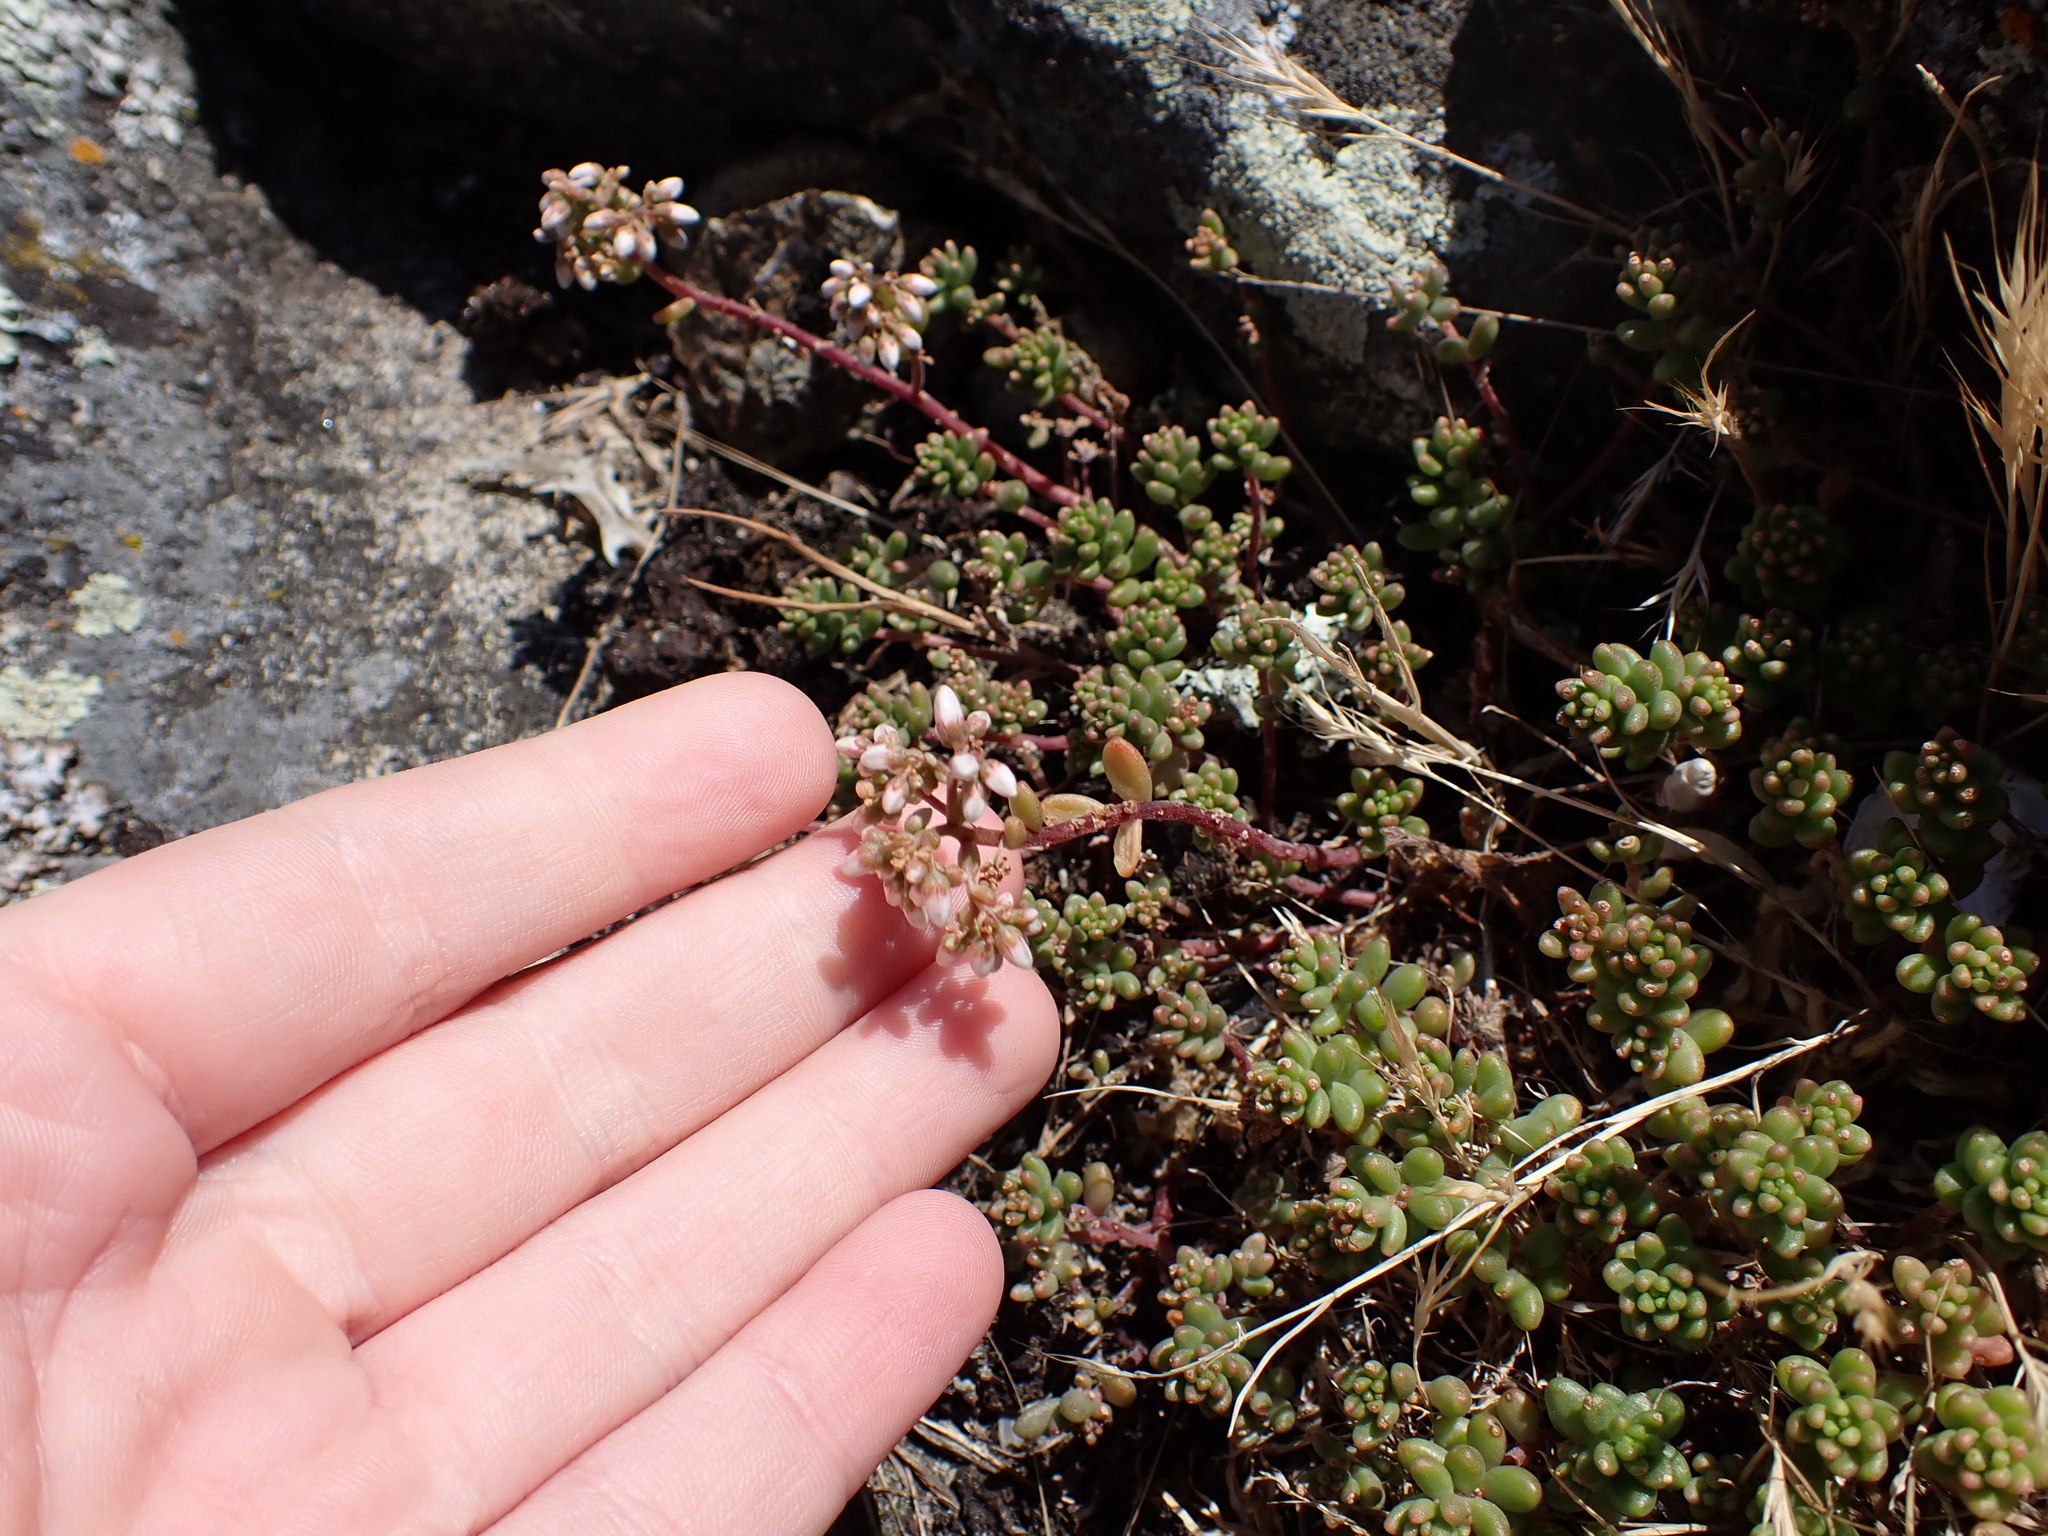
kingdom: Plantae
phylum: Tracheophyta
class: Magnoliopsida
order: Saxifragales
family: Crassulaceae
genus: Sedum
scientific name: Sedum album
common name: White stonecrop
